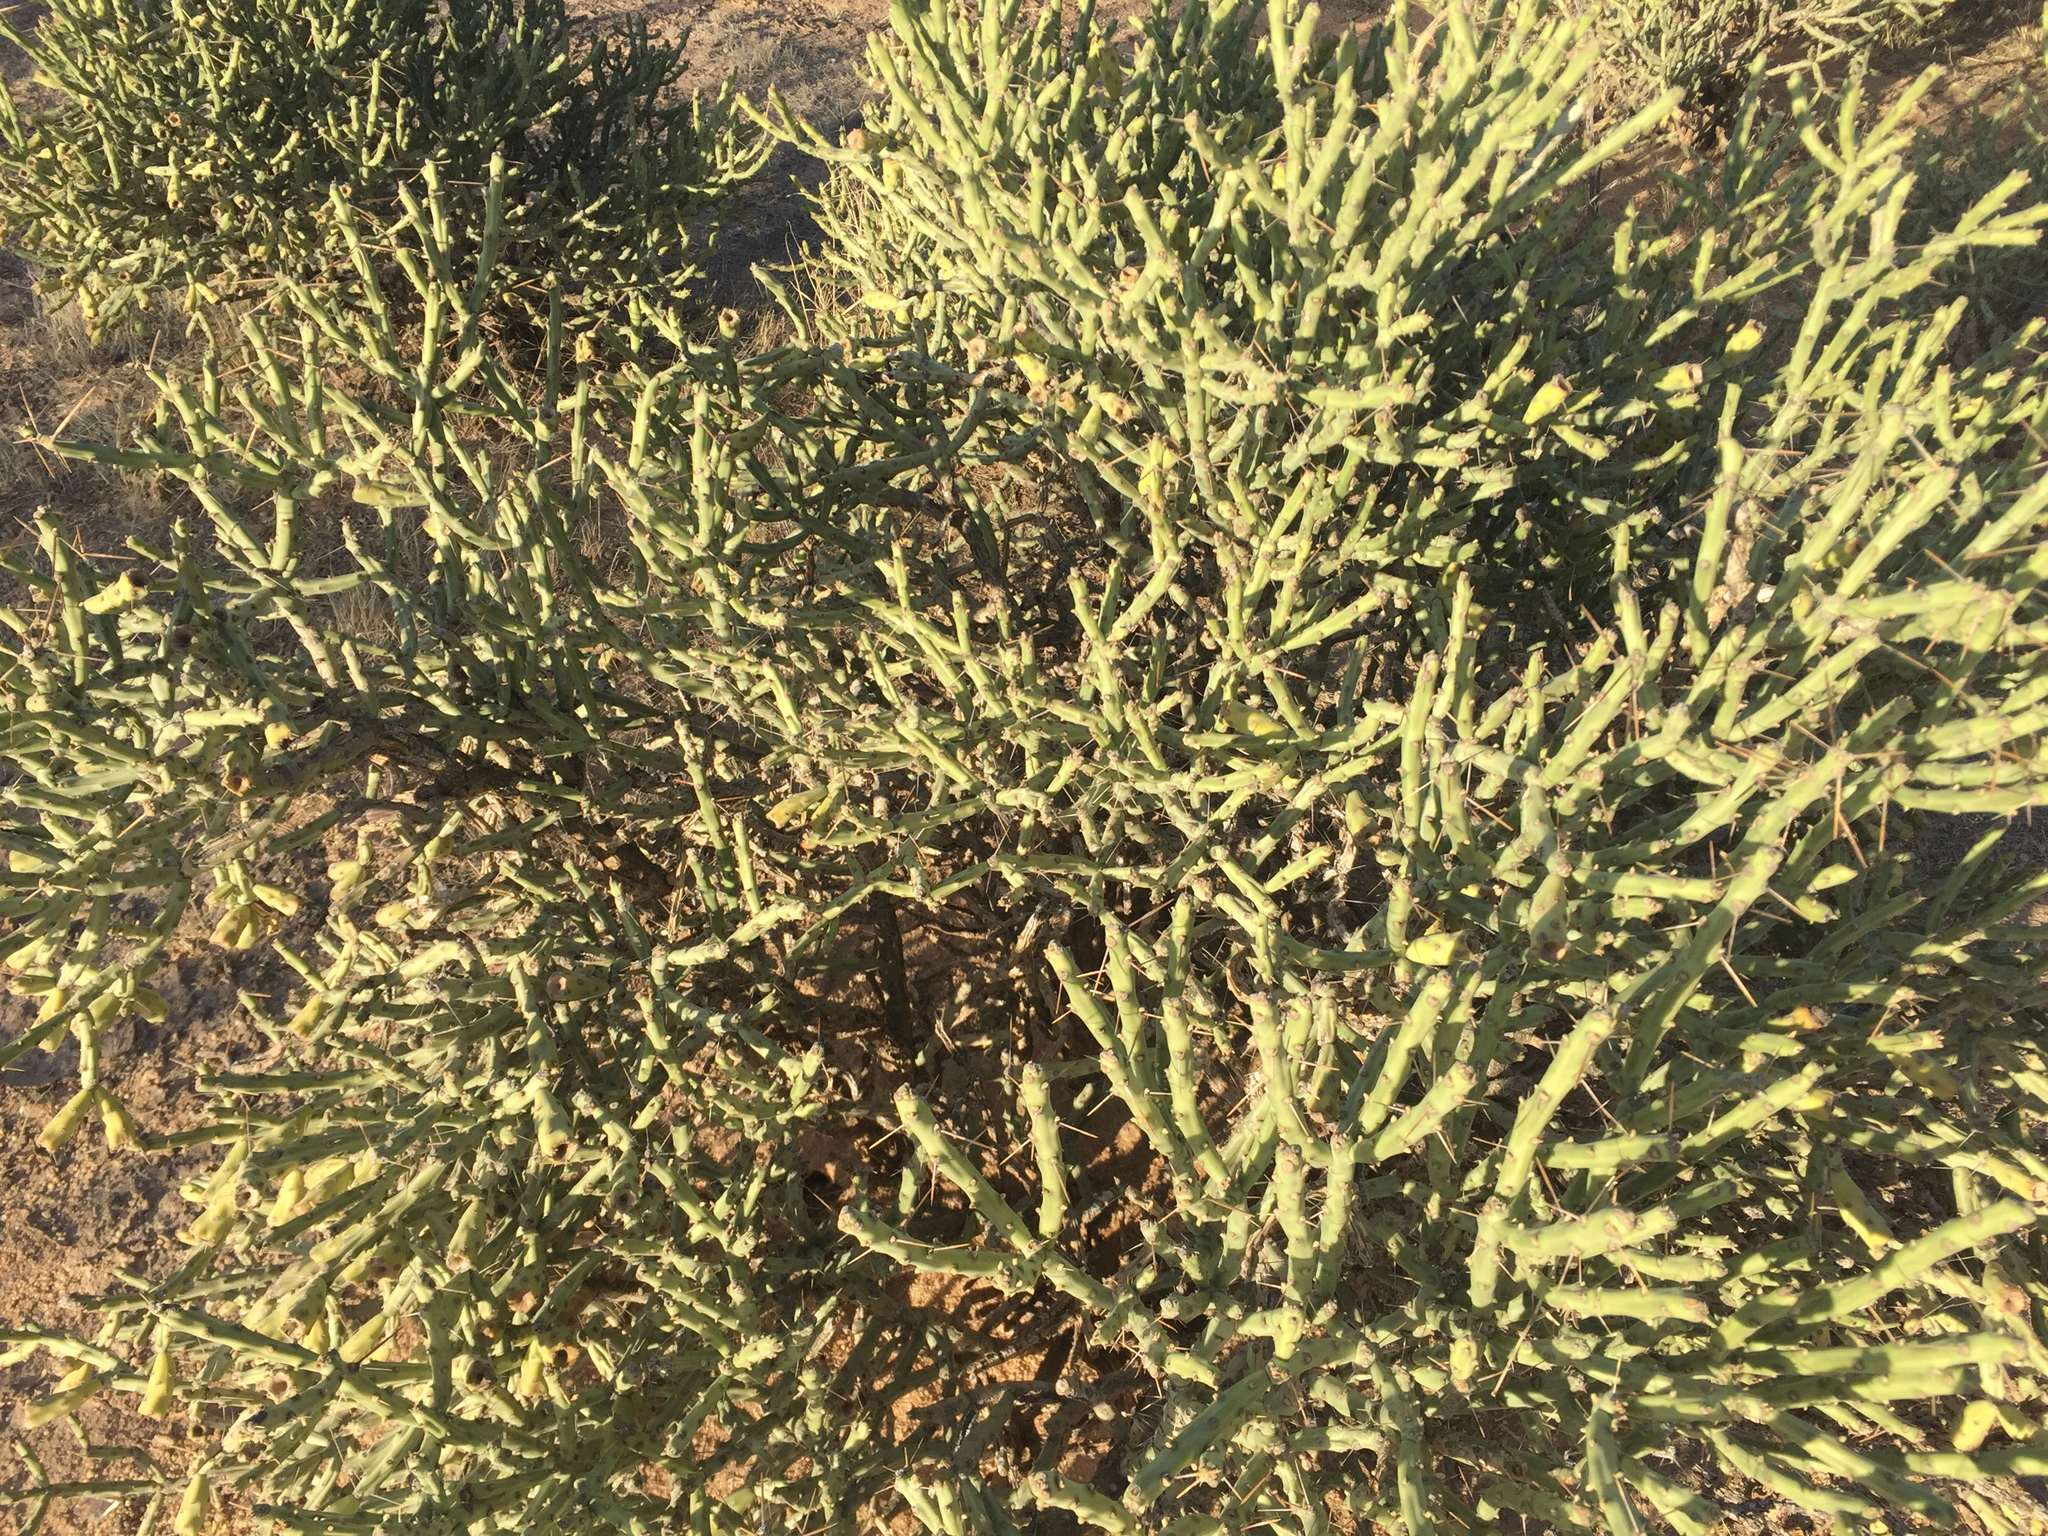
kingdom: Plantae
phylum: Tracheophyta
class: Magnoliopsida
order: Caryophyllales
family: Cactaceae
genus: Cylindropuntia
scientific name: Cylindropuntia arbuscula
